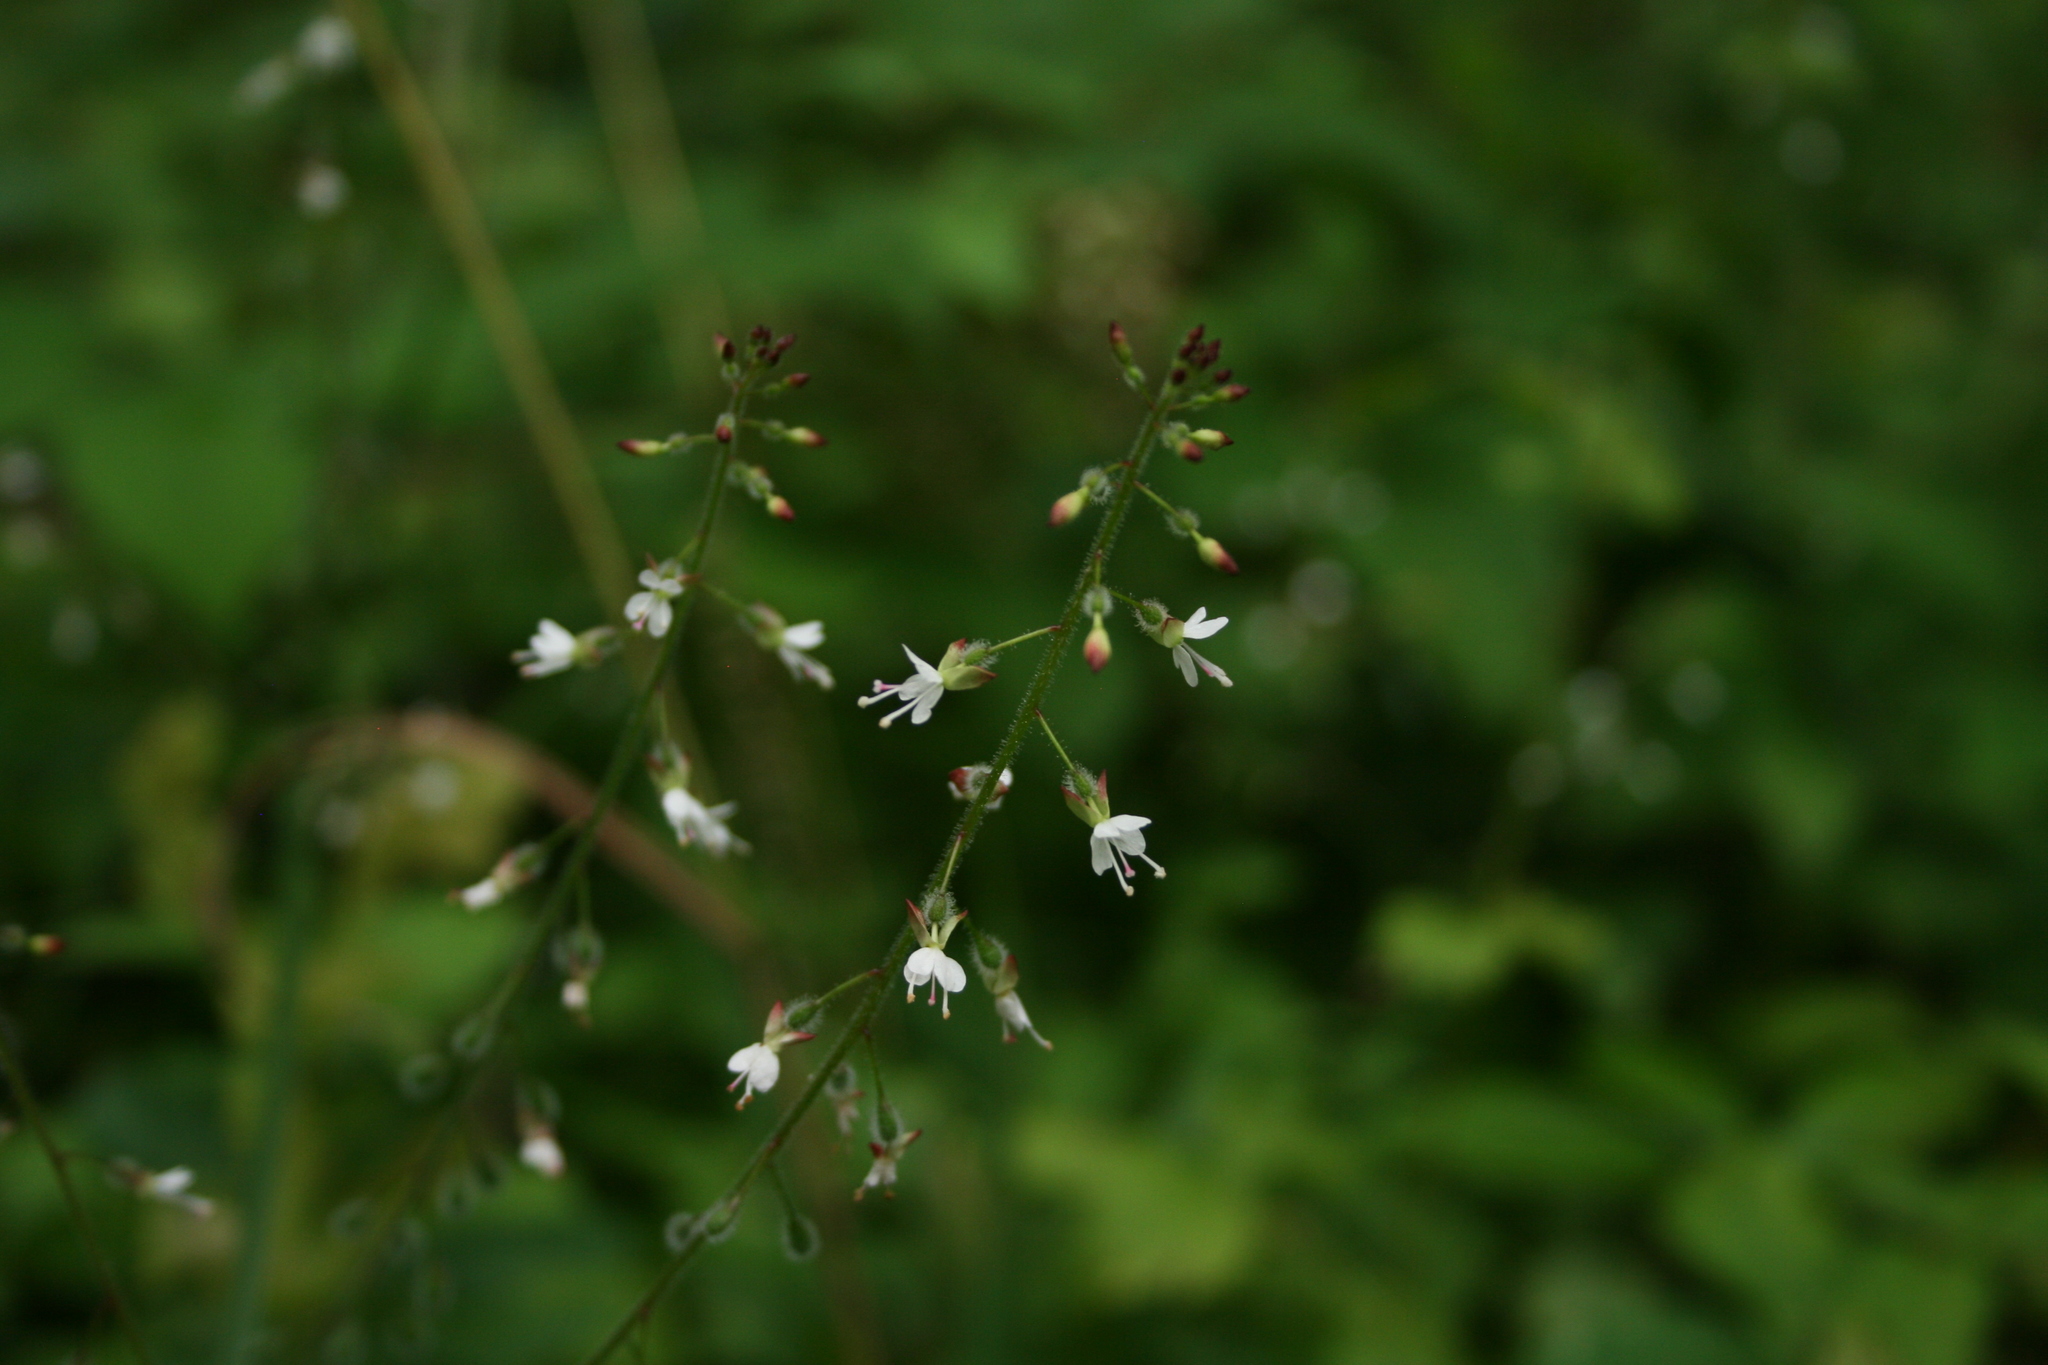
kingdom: Plantae
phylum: Tracheophyta
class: Magnoliopsida
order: Myrtales
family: Onagraceae
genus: Circaea
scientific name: Circaea lutetiana
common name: Enchanter's-nightshade
